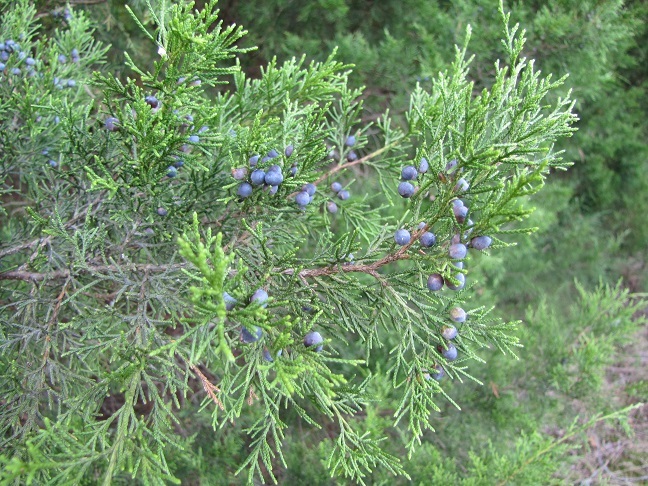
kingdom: Plantae
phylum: Tracheophyta
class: Pinopsida
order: Pinales
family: Cupressaceae
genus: Juniperus
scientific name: Juniperus virginiana
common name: Red juniper
